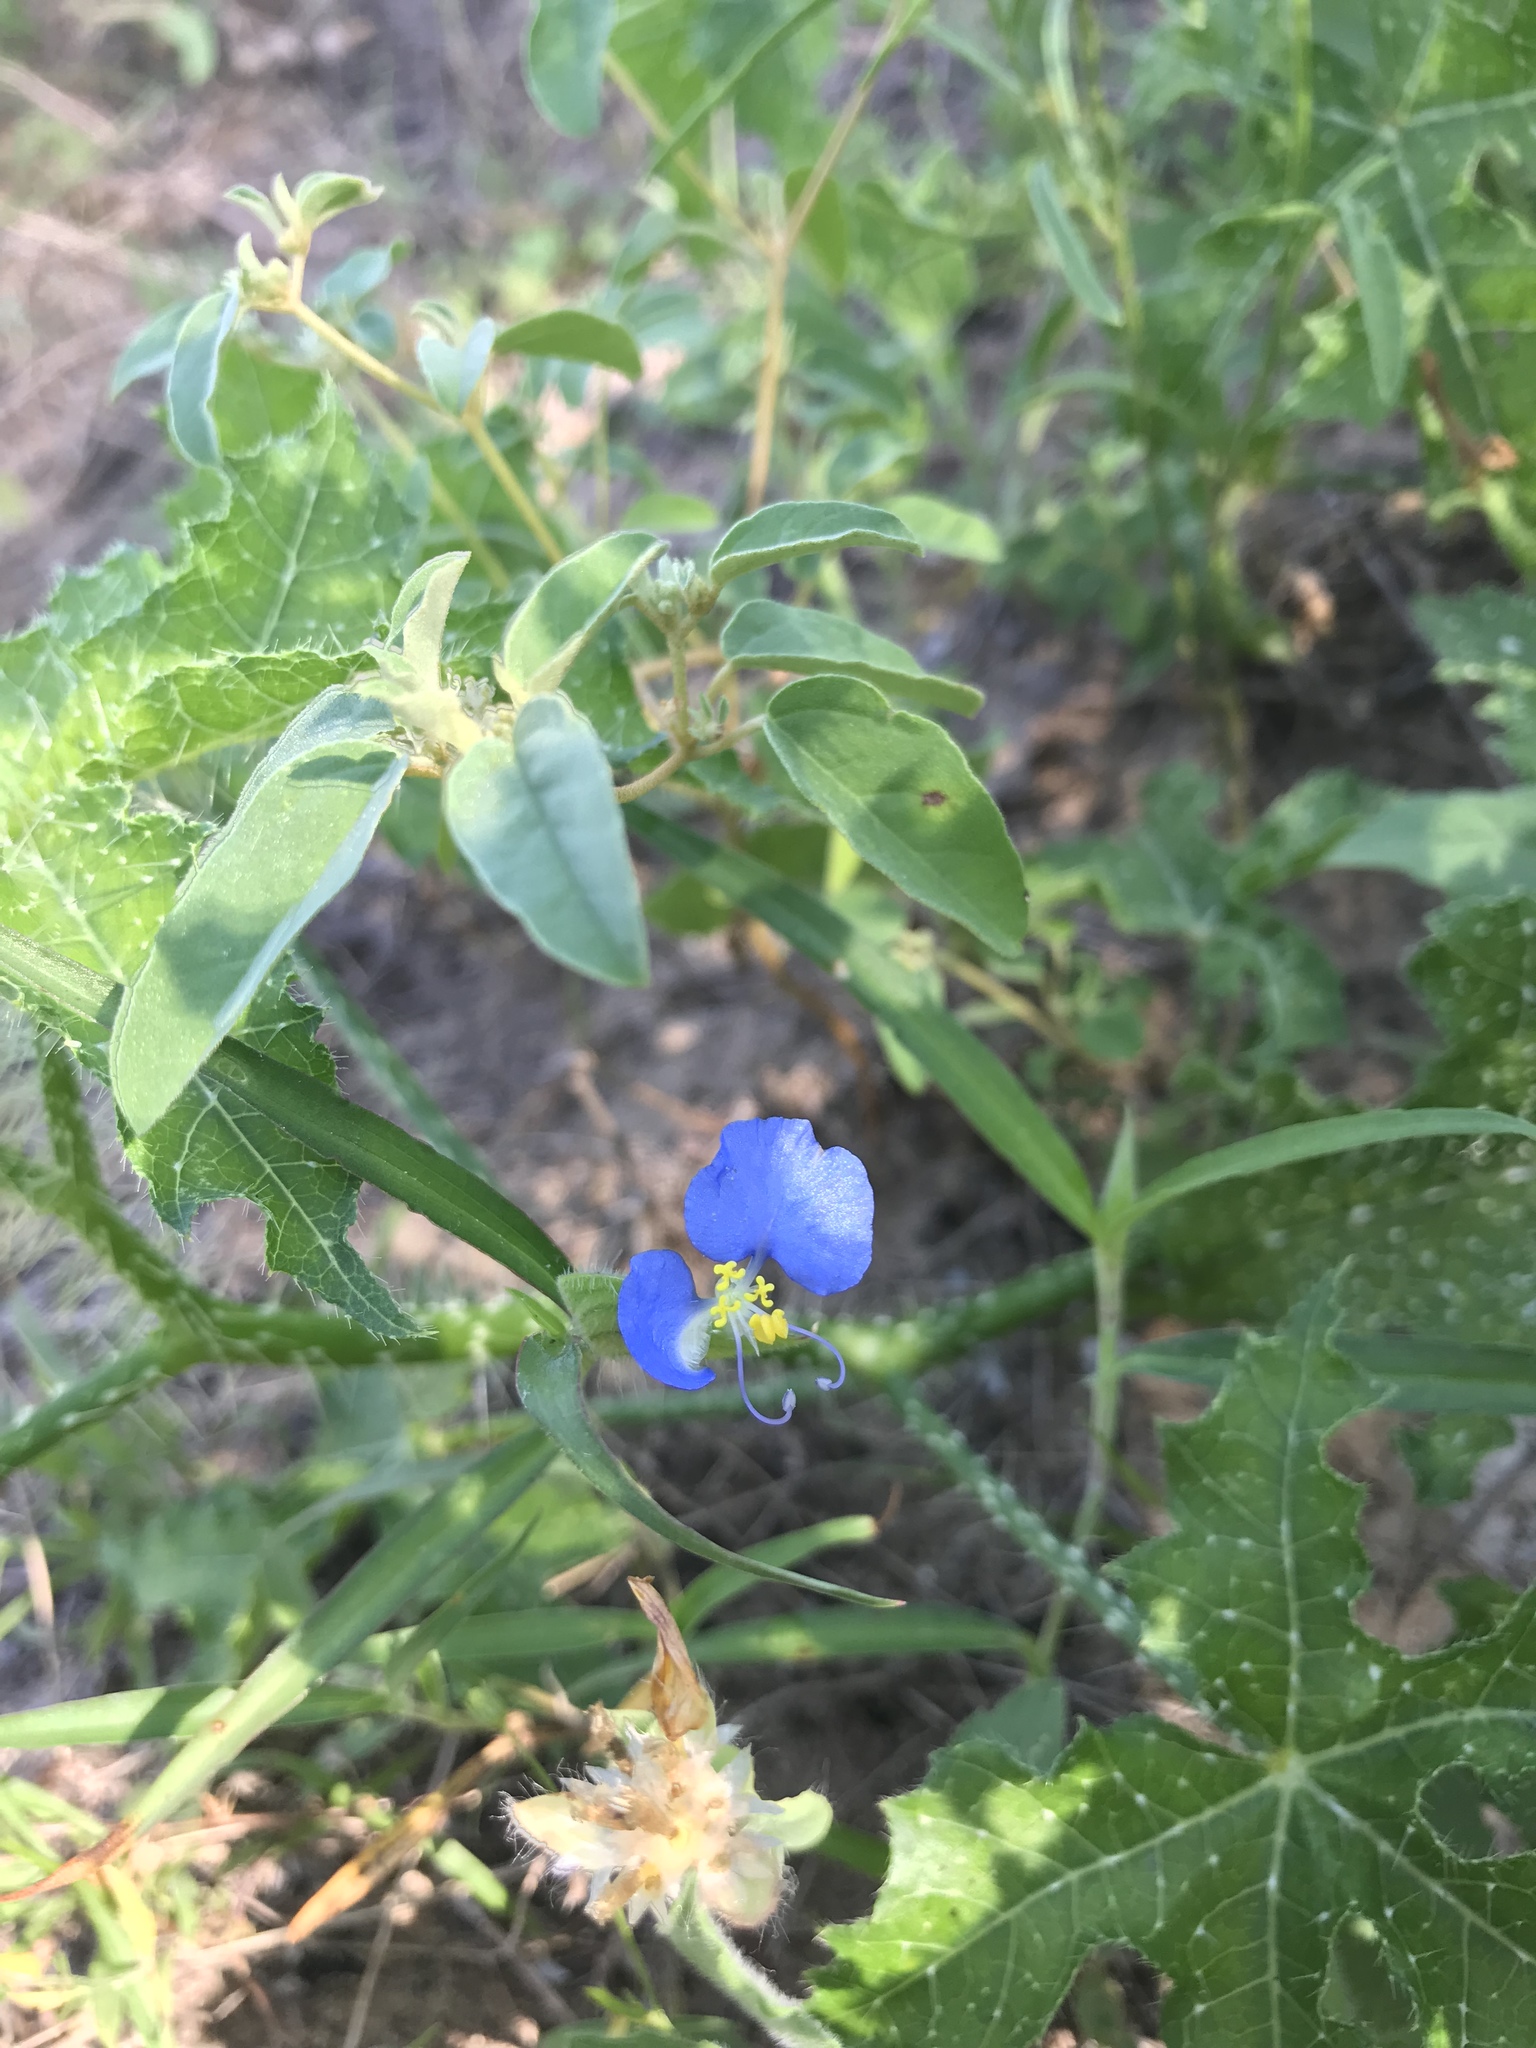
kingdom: Plantae
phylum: Tracheophyta
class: Liliopsida
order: Commelinales
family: Commelinaceae
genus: Commelina
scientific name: Commelina erecta
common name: Blousel blommetjie
